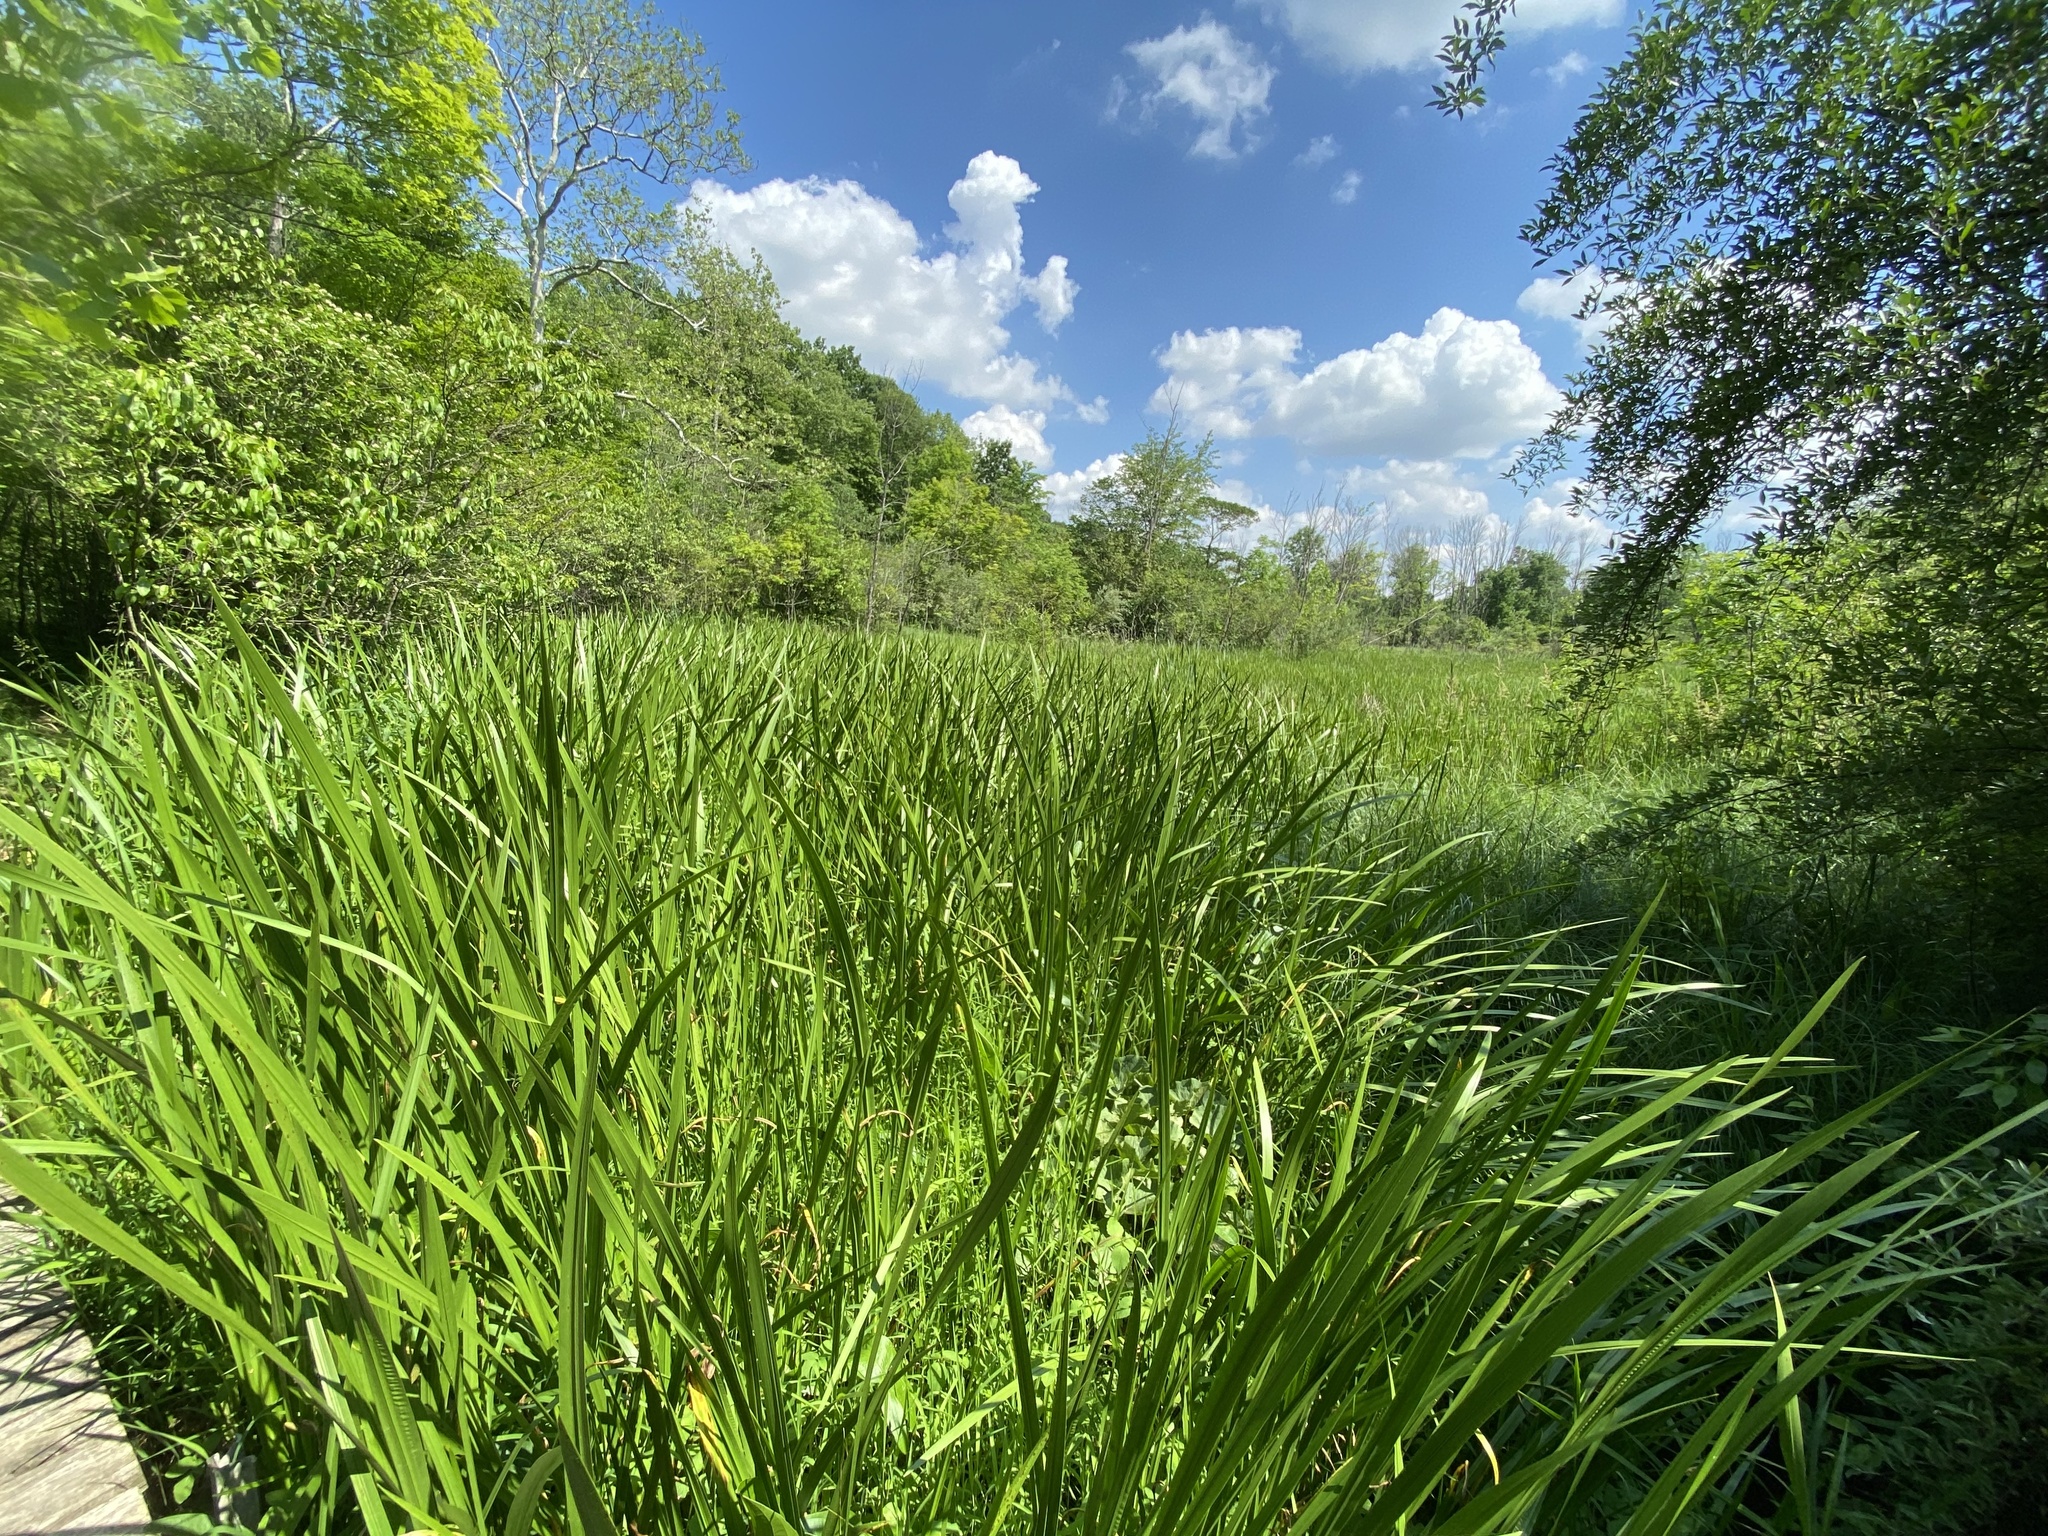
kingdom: Plantae
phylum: Tracheophyta
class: Liliopsida
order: Acorales
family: Acoraceae
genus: Acorus
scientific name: Acorus calamus
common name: Sweet-flag
